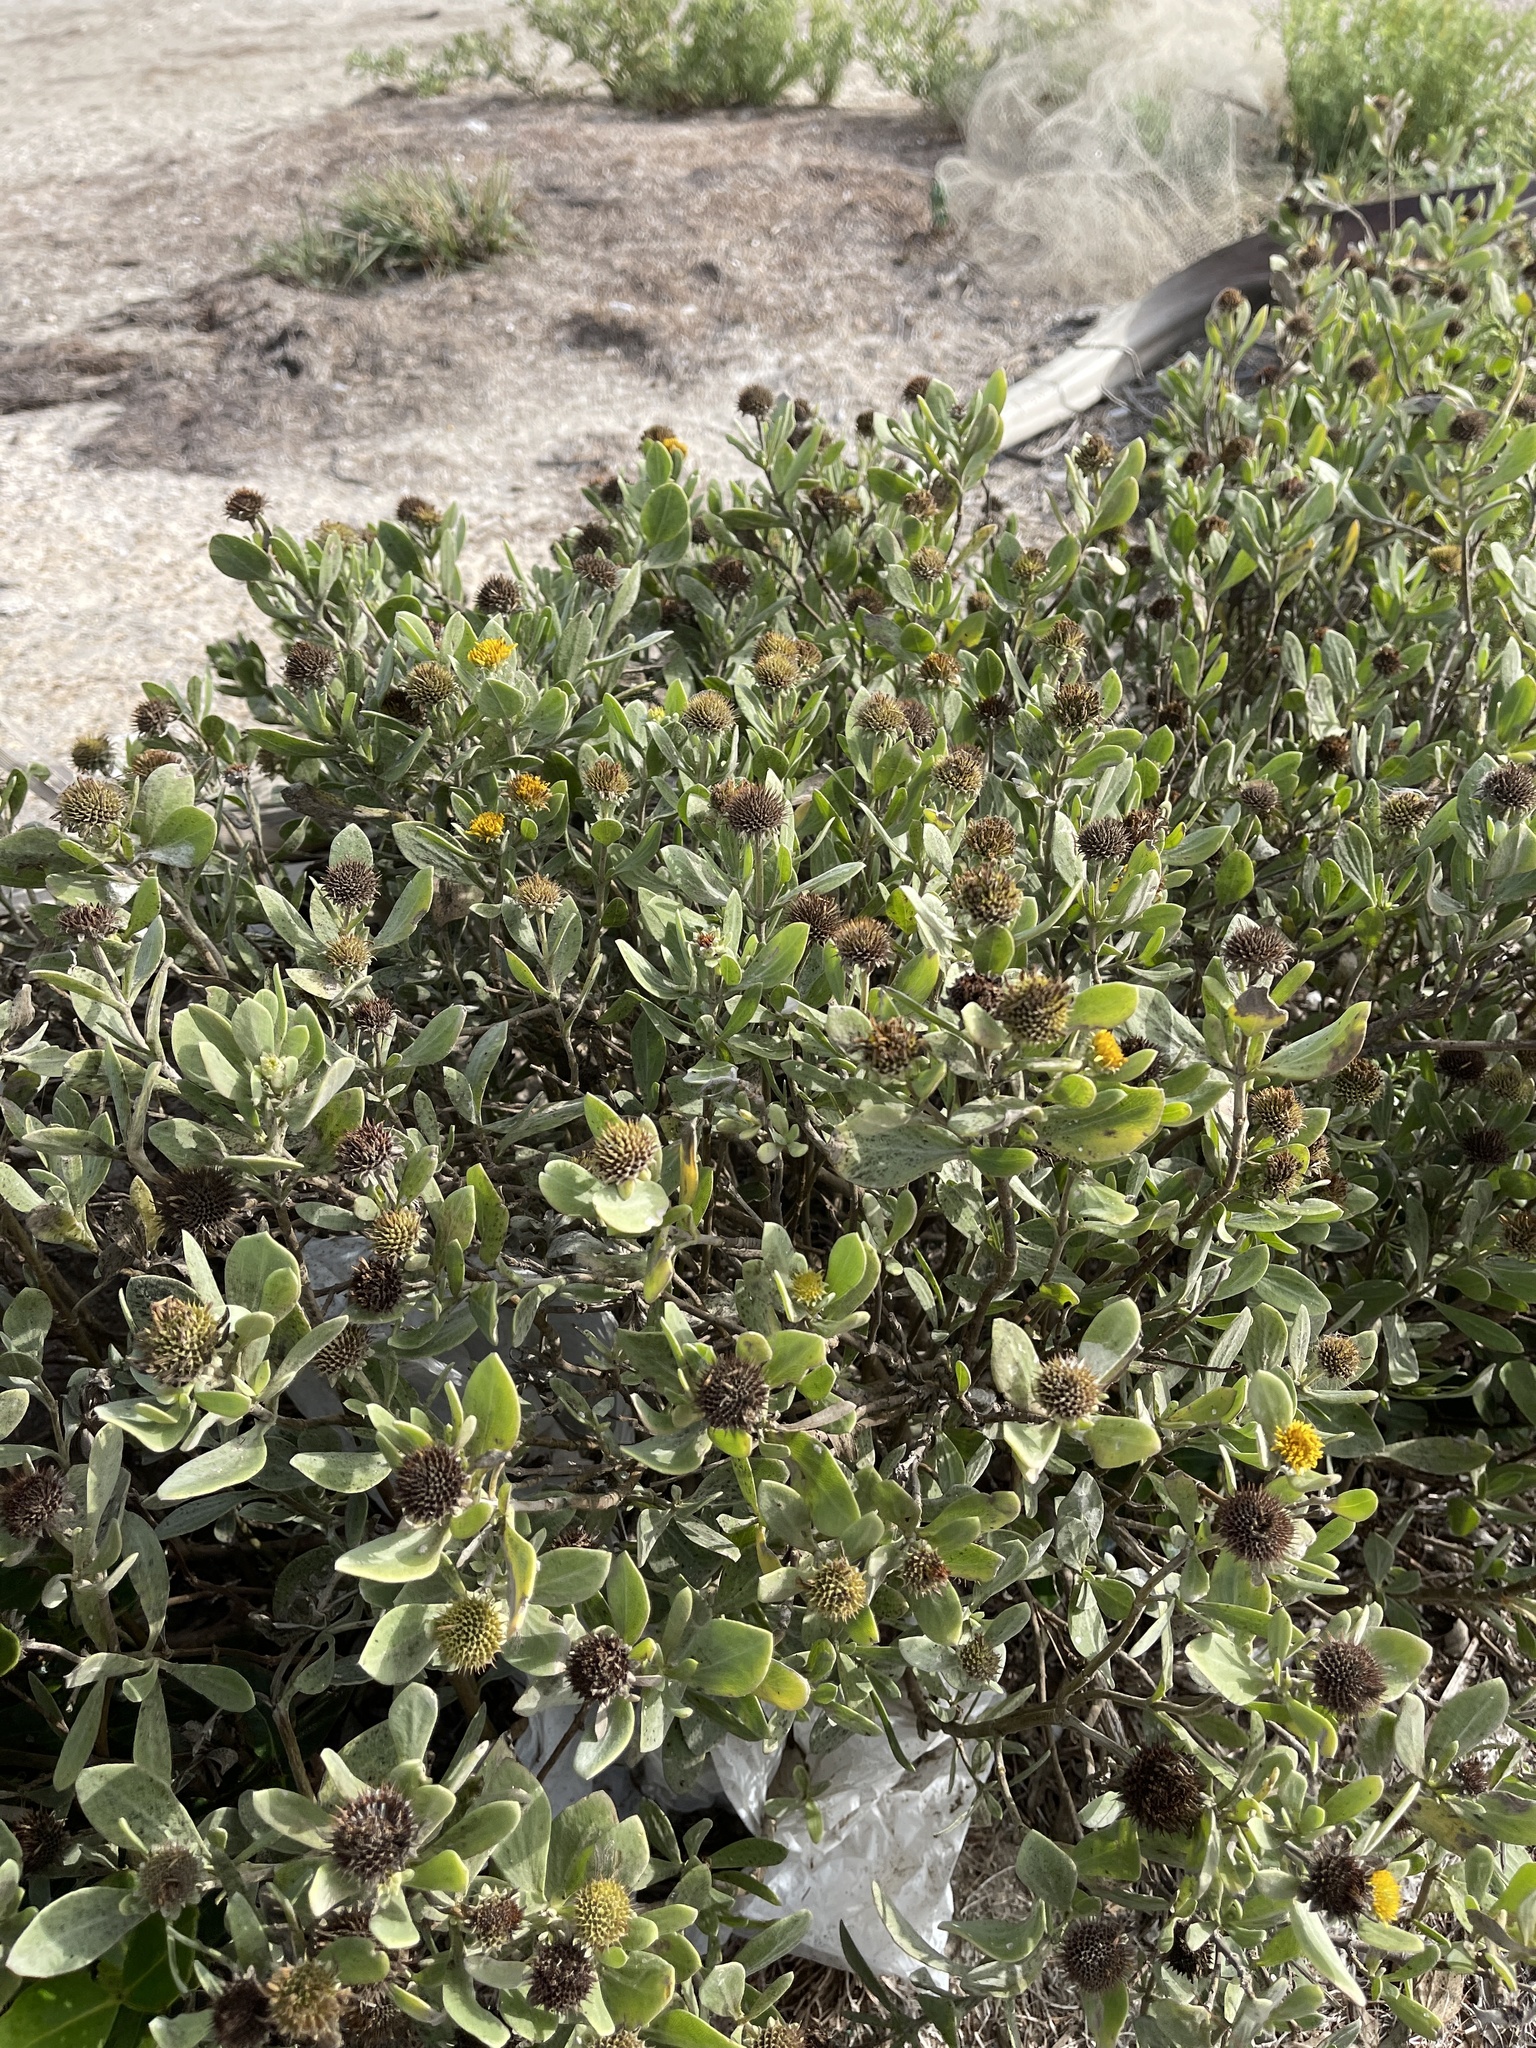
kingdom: Plantae
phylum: Tracheophyta
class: Magnoliopsida
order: Asterales
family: Asteraceae
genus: Borrichia
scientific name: Borrichia frutescens
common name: Sea oxeye
